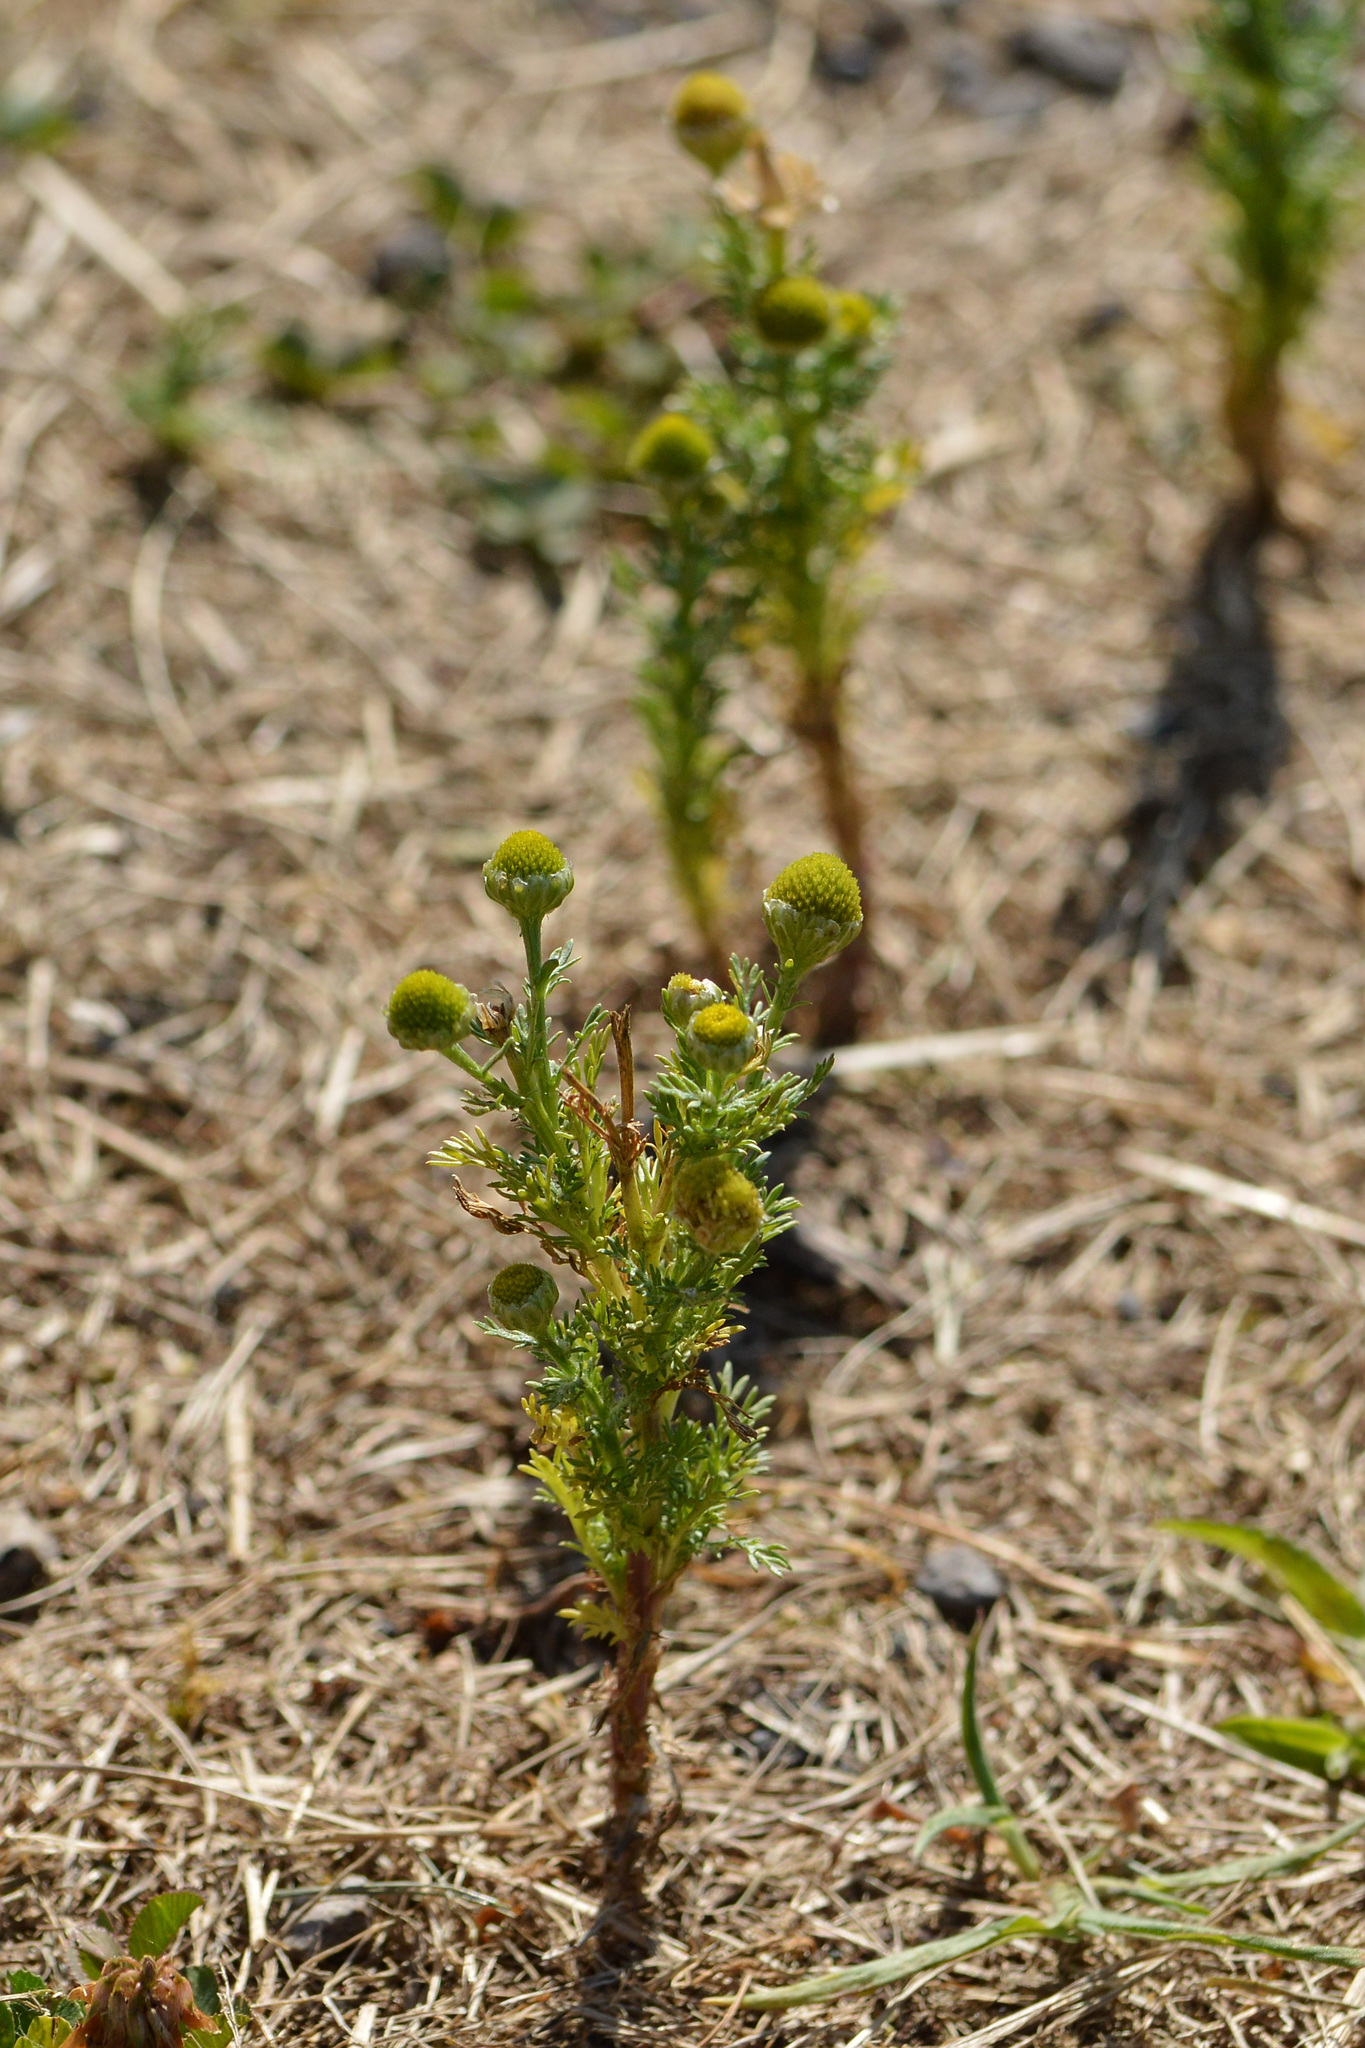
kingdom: Plantae
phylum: Tracheophyta
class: Magnoliopsida
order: Asterales
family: Asteraceae
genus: Matricaria
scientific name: Matricaria discoidea
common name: Disc mayweed
